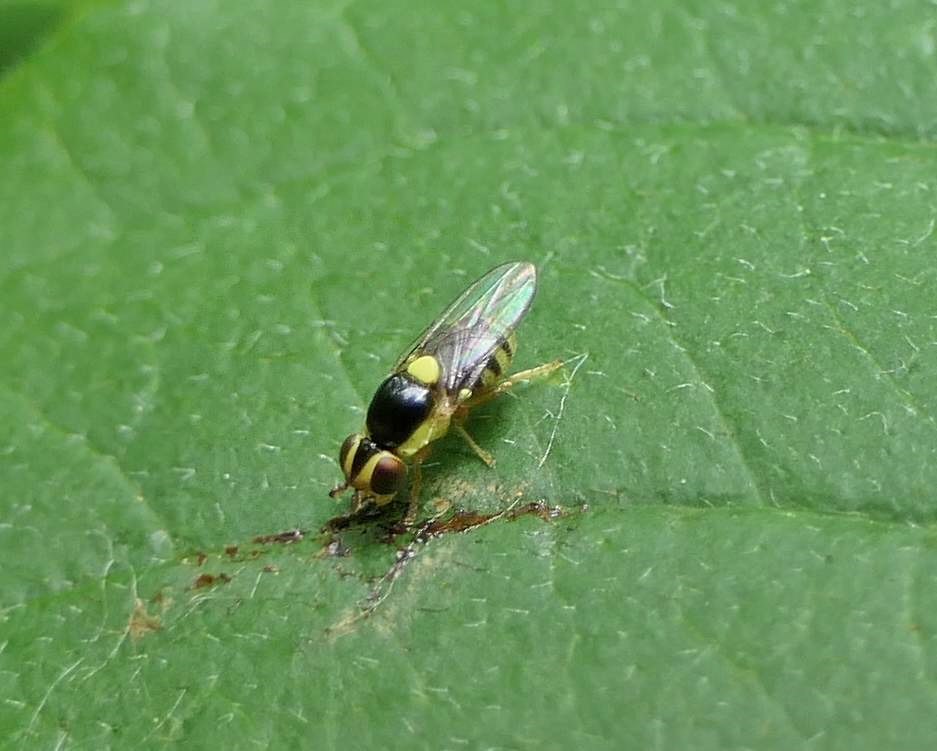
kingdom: Animalia
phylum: Arthropoda
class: Insecta
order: Diptera
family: Chloropidae
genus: Thaumatomyia
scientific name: Thaumatomyia grata
